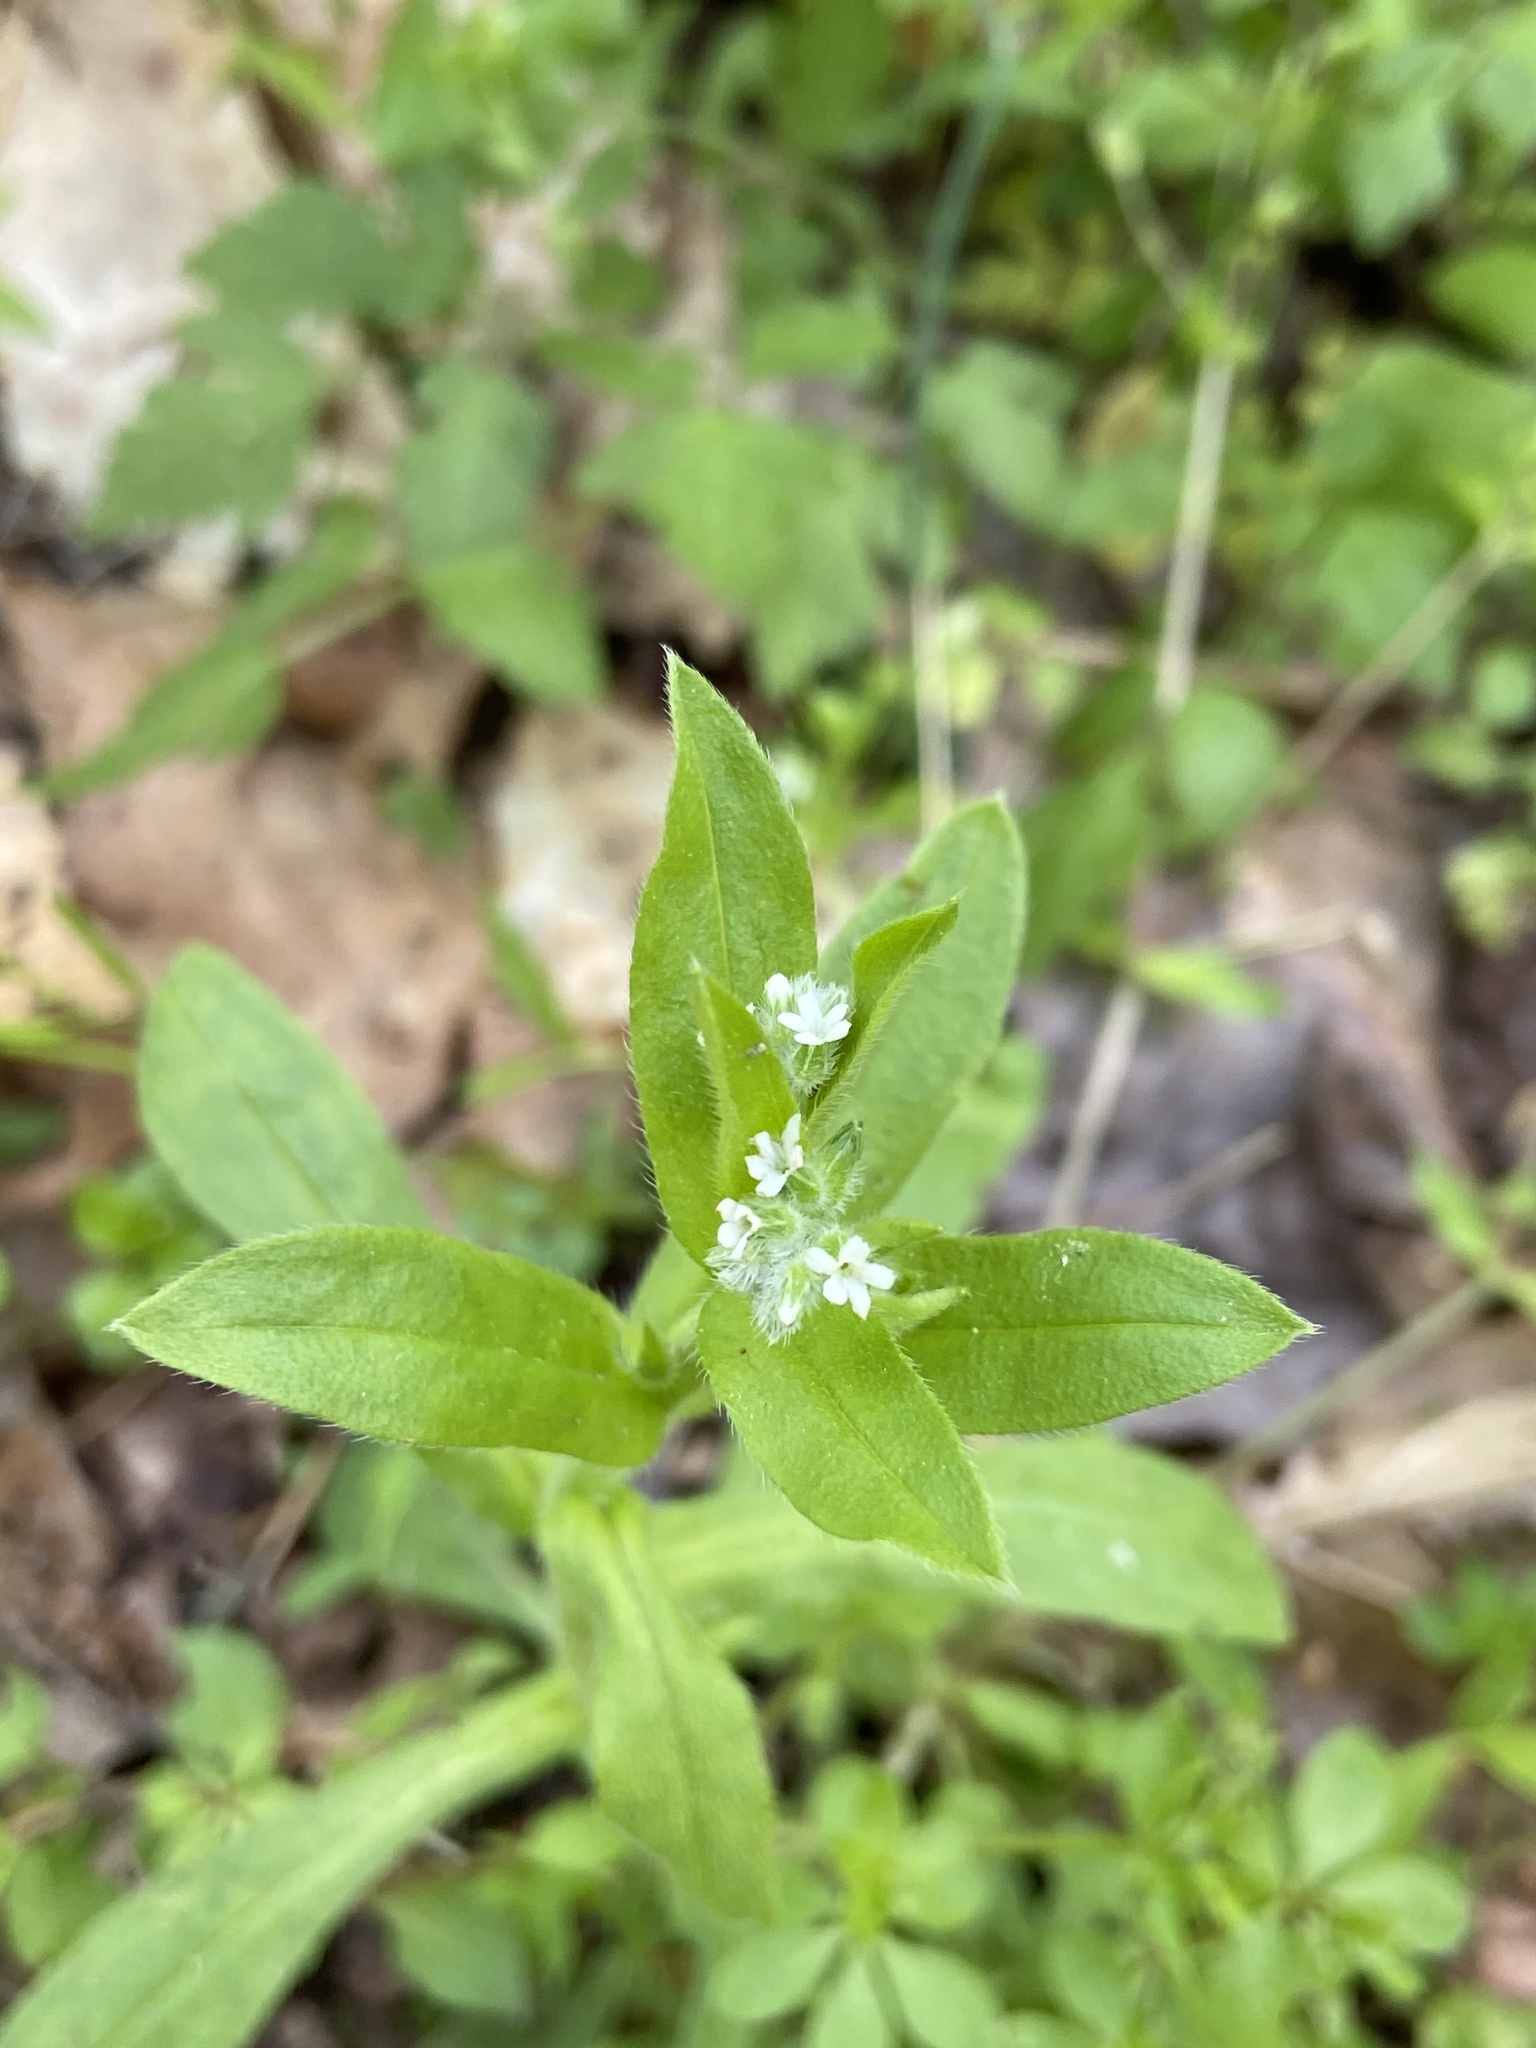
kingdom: Plantae
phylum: Tracheophyta
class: Magnoliopsida
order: Boraginales
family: Boraginaceae
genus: Myosotis
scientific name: Myosotis macrosperma
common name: Large-seed forget-me-not
